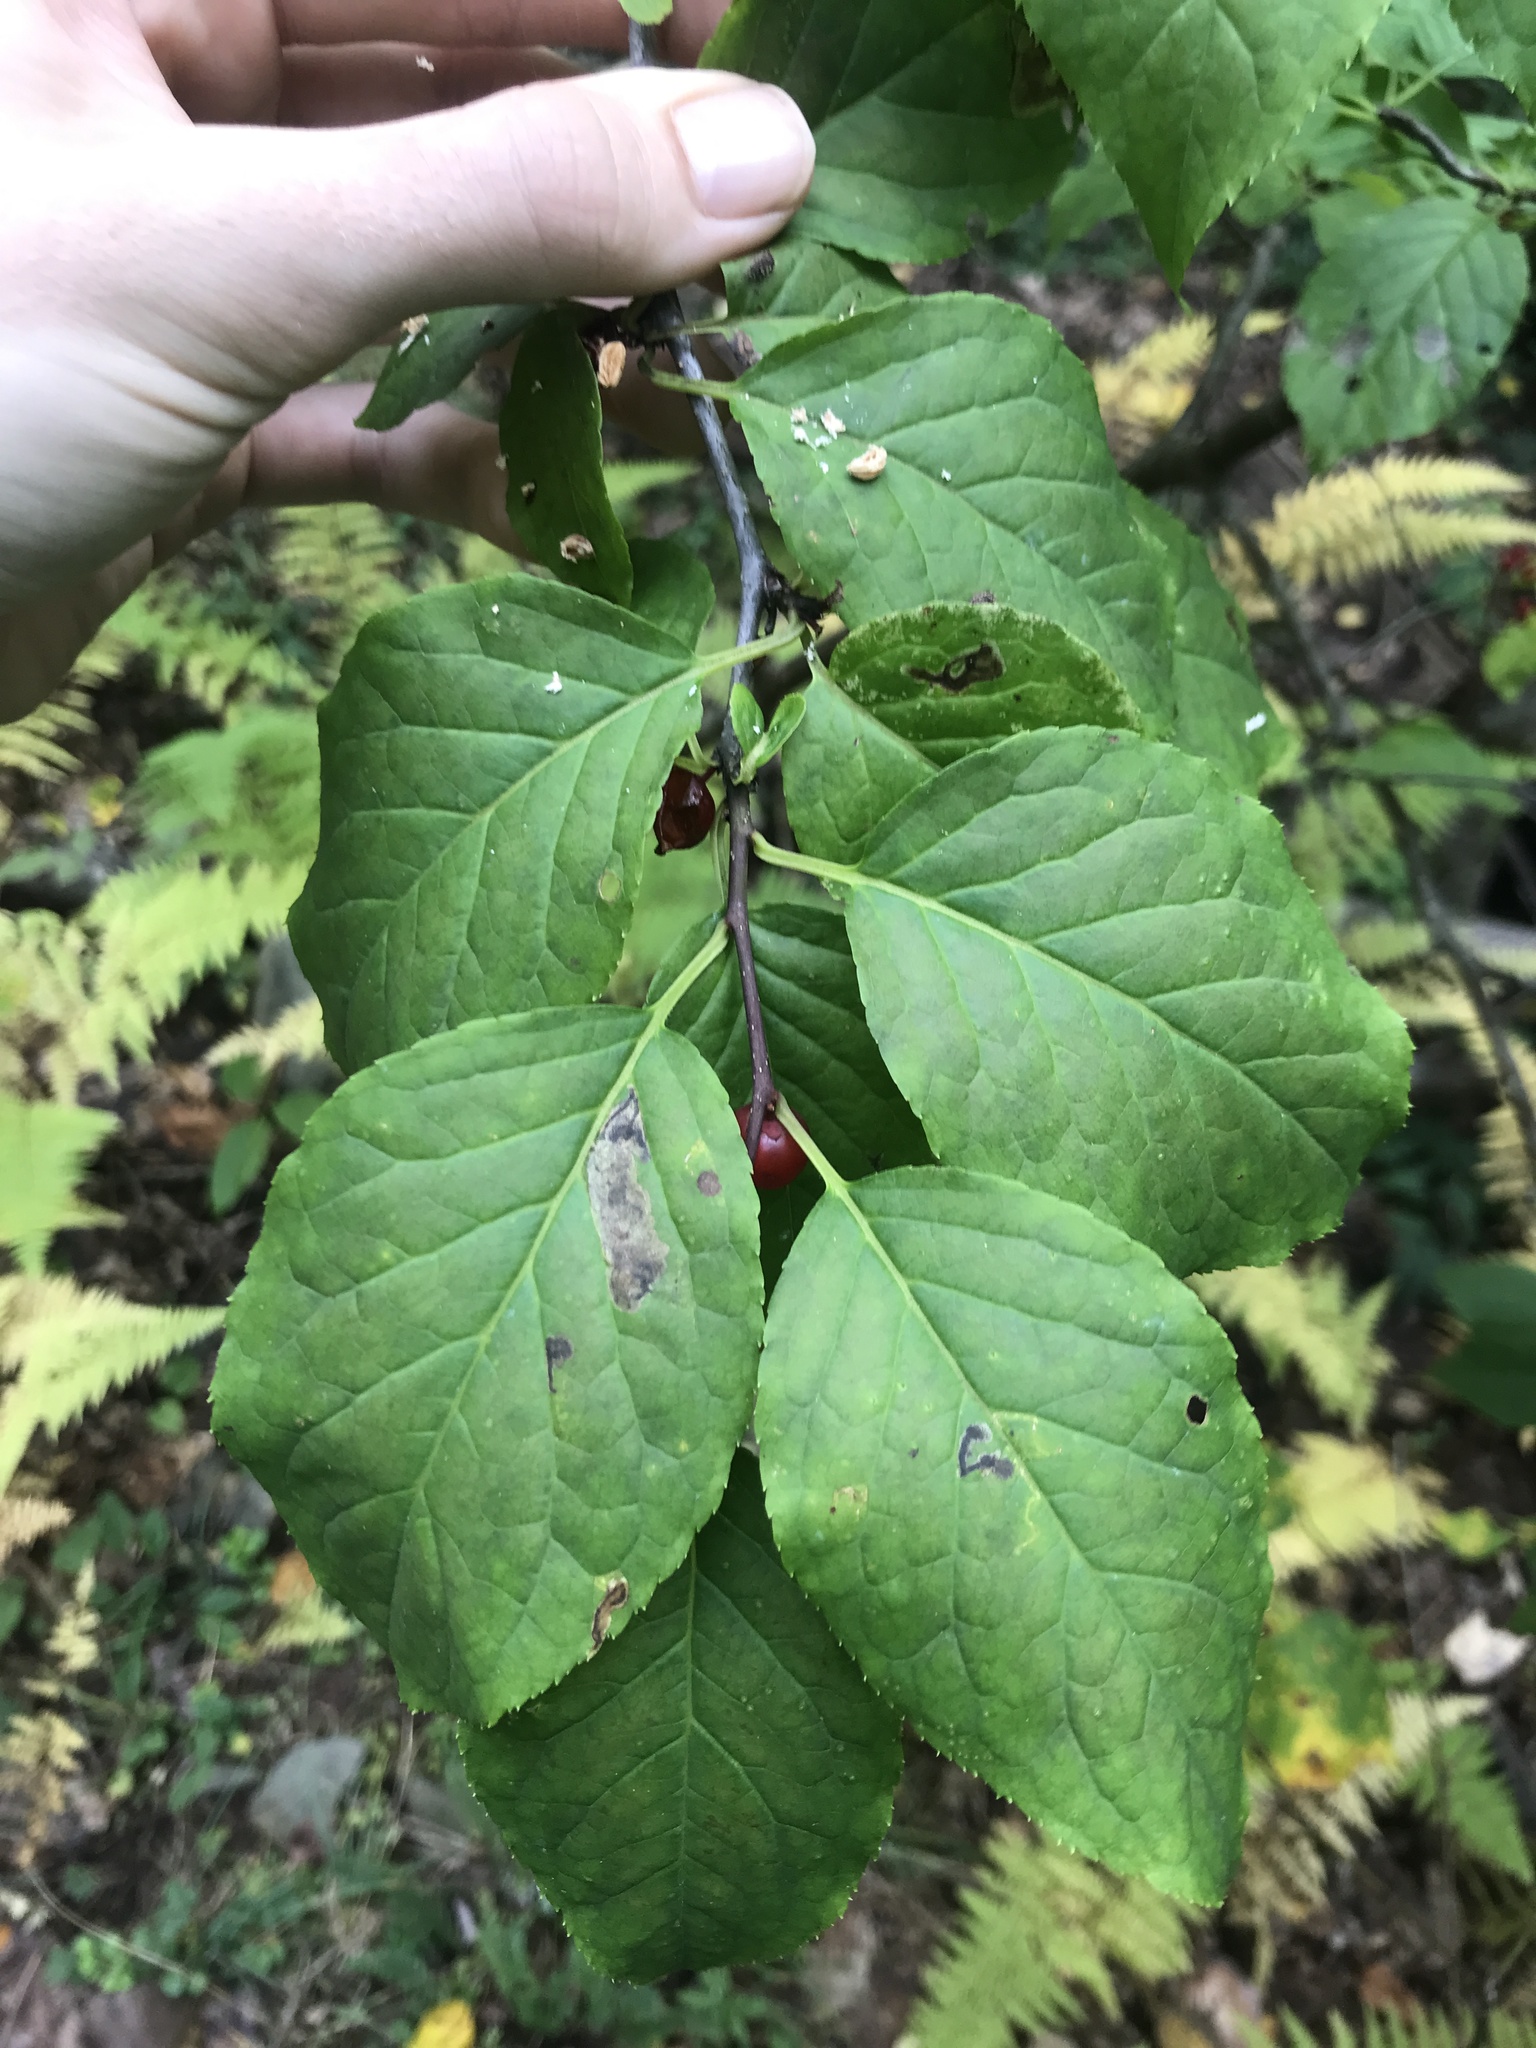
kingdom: Plantae
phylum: Tracheophyta
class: Magnoliopsida
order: Aquifoliales
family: Aquifoliaceae
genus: Ilex
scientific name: Ilex montana
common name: Mountain winterberry
